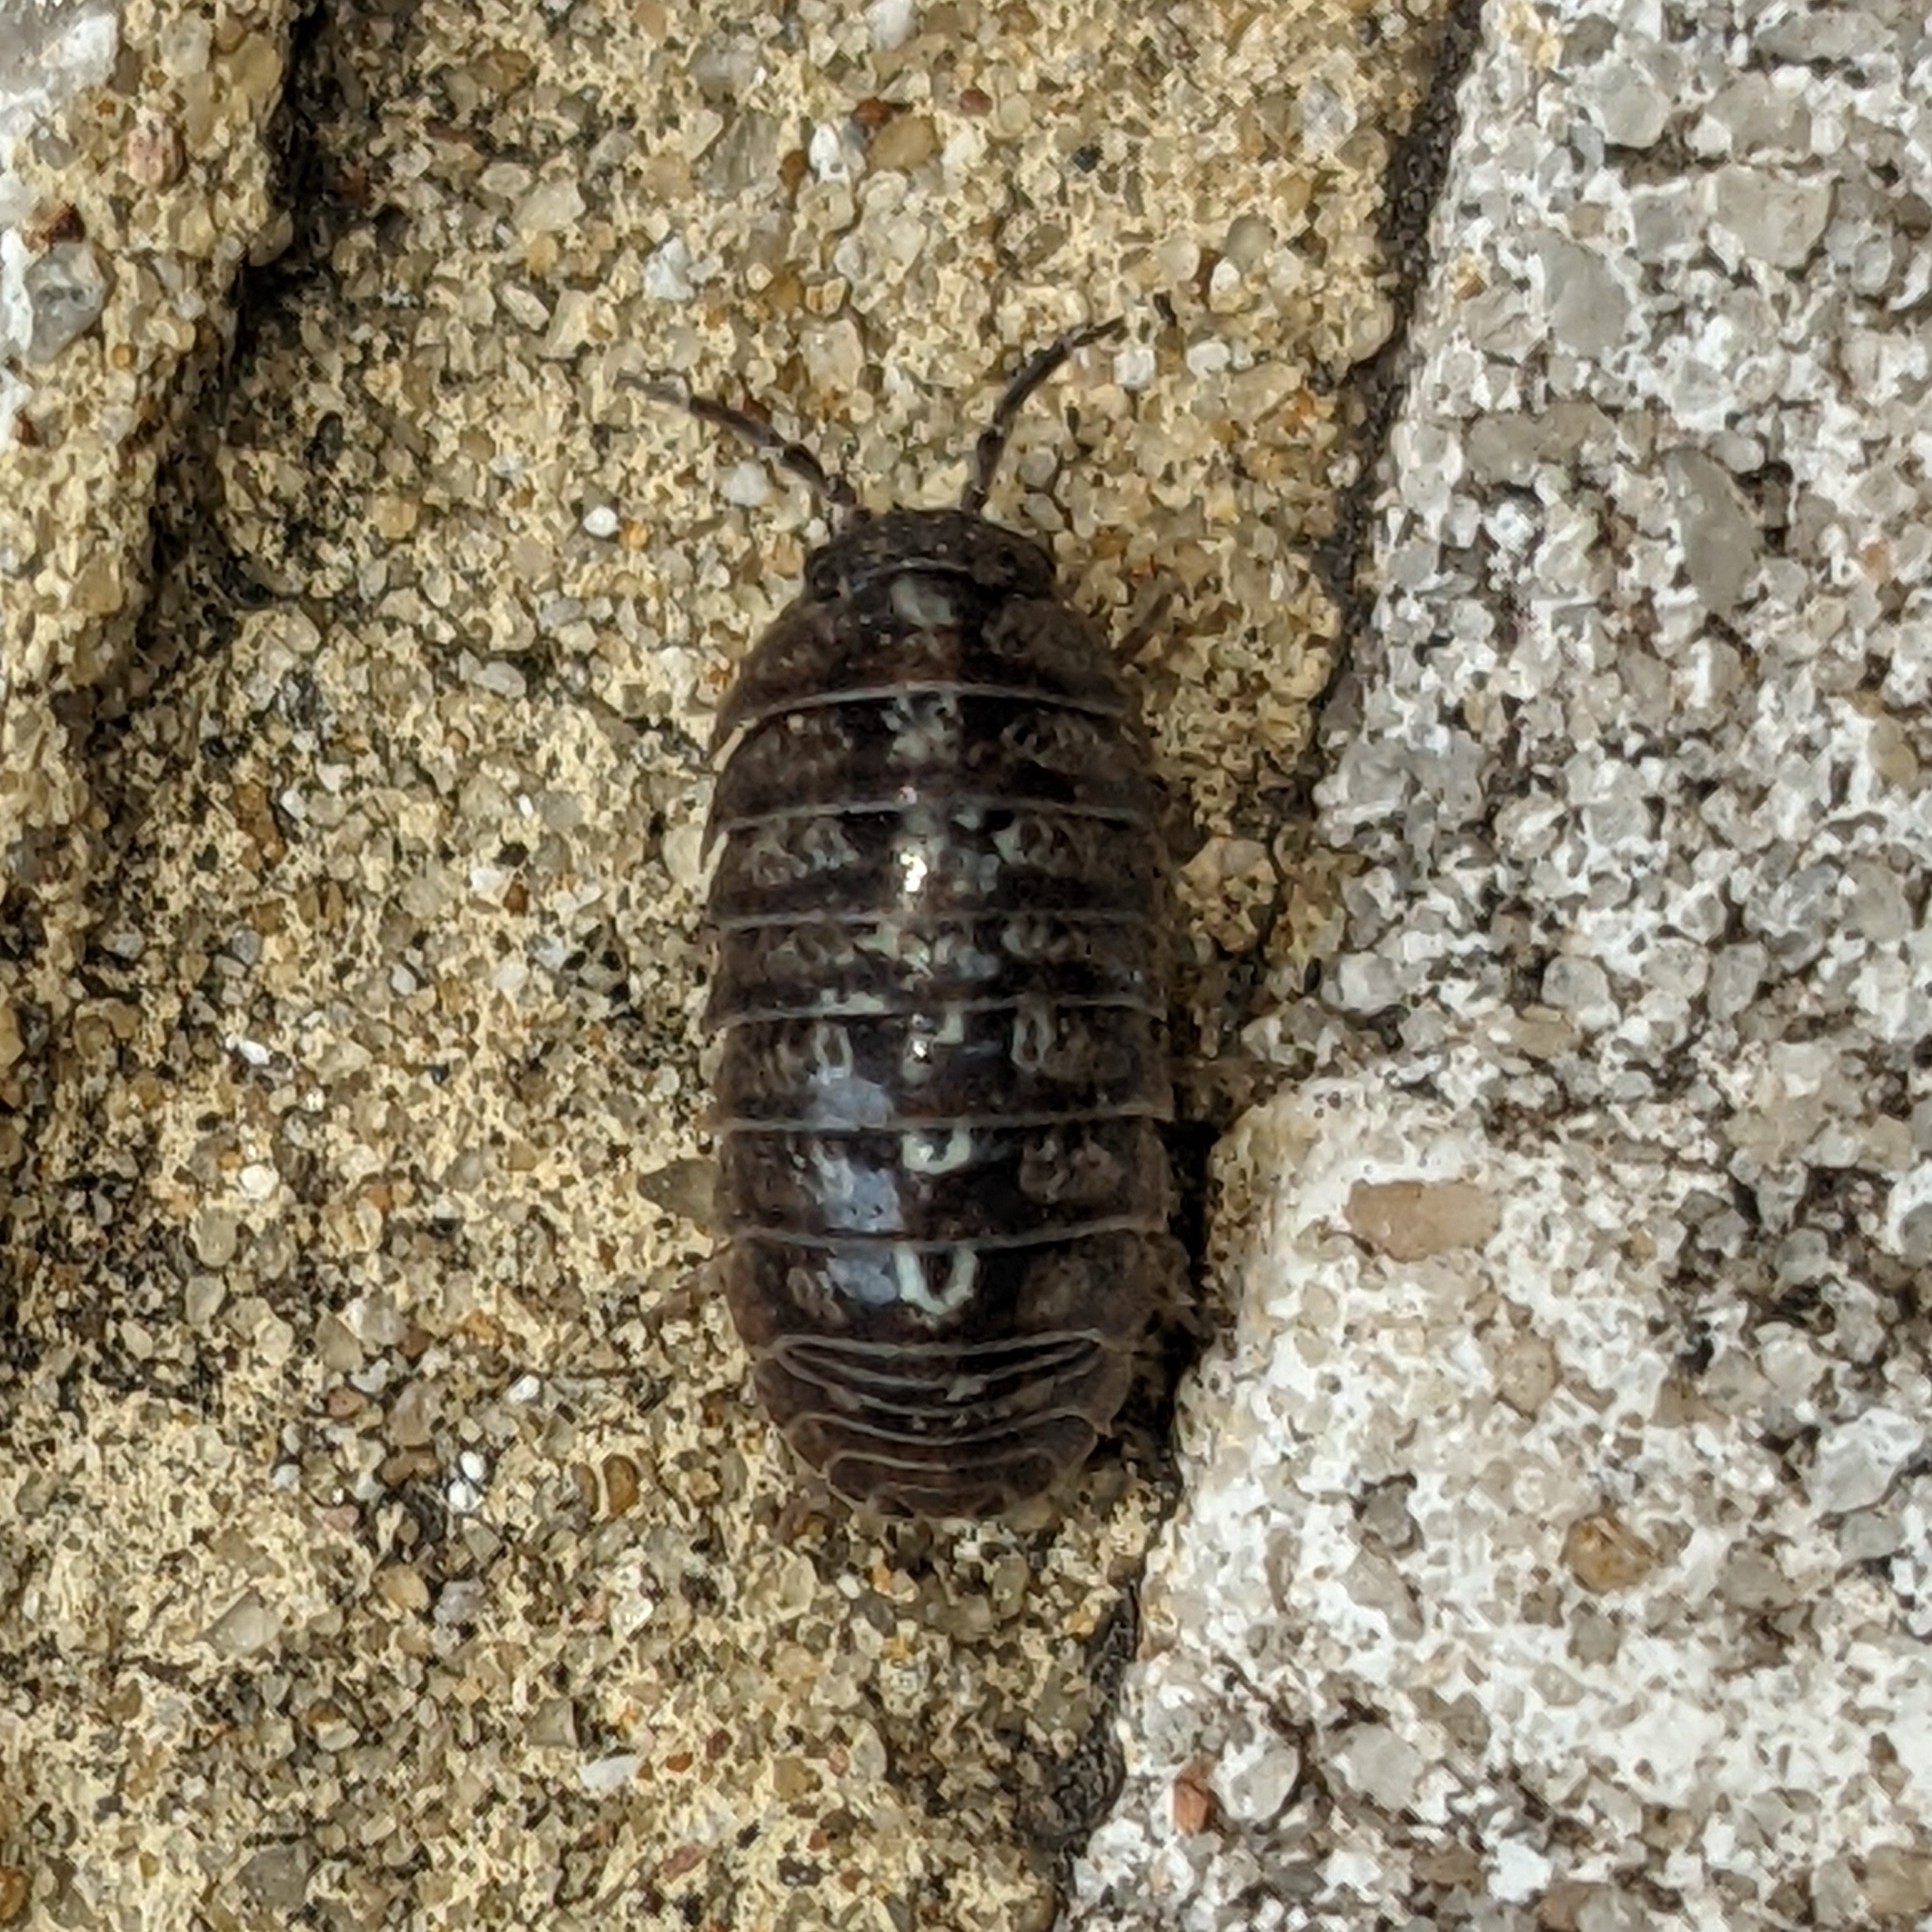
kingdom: Animalia
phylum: Arthropoda
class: Malacostraca
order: Isopoda
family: Armadillidiidae
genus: Armadillidium
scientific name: Armadillidium vulgare
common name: Common pill woodlouse
